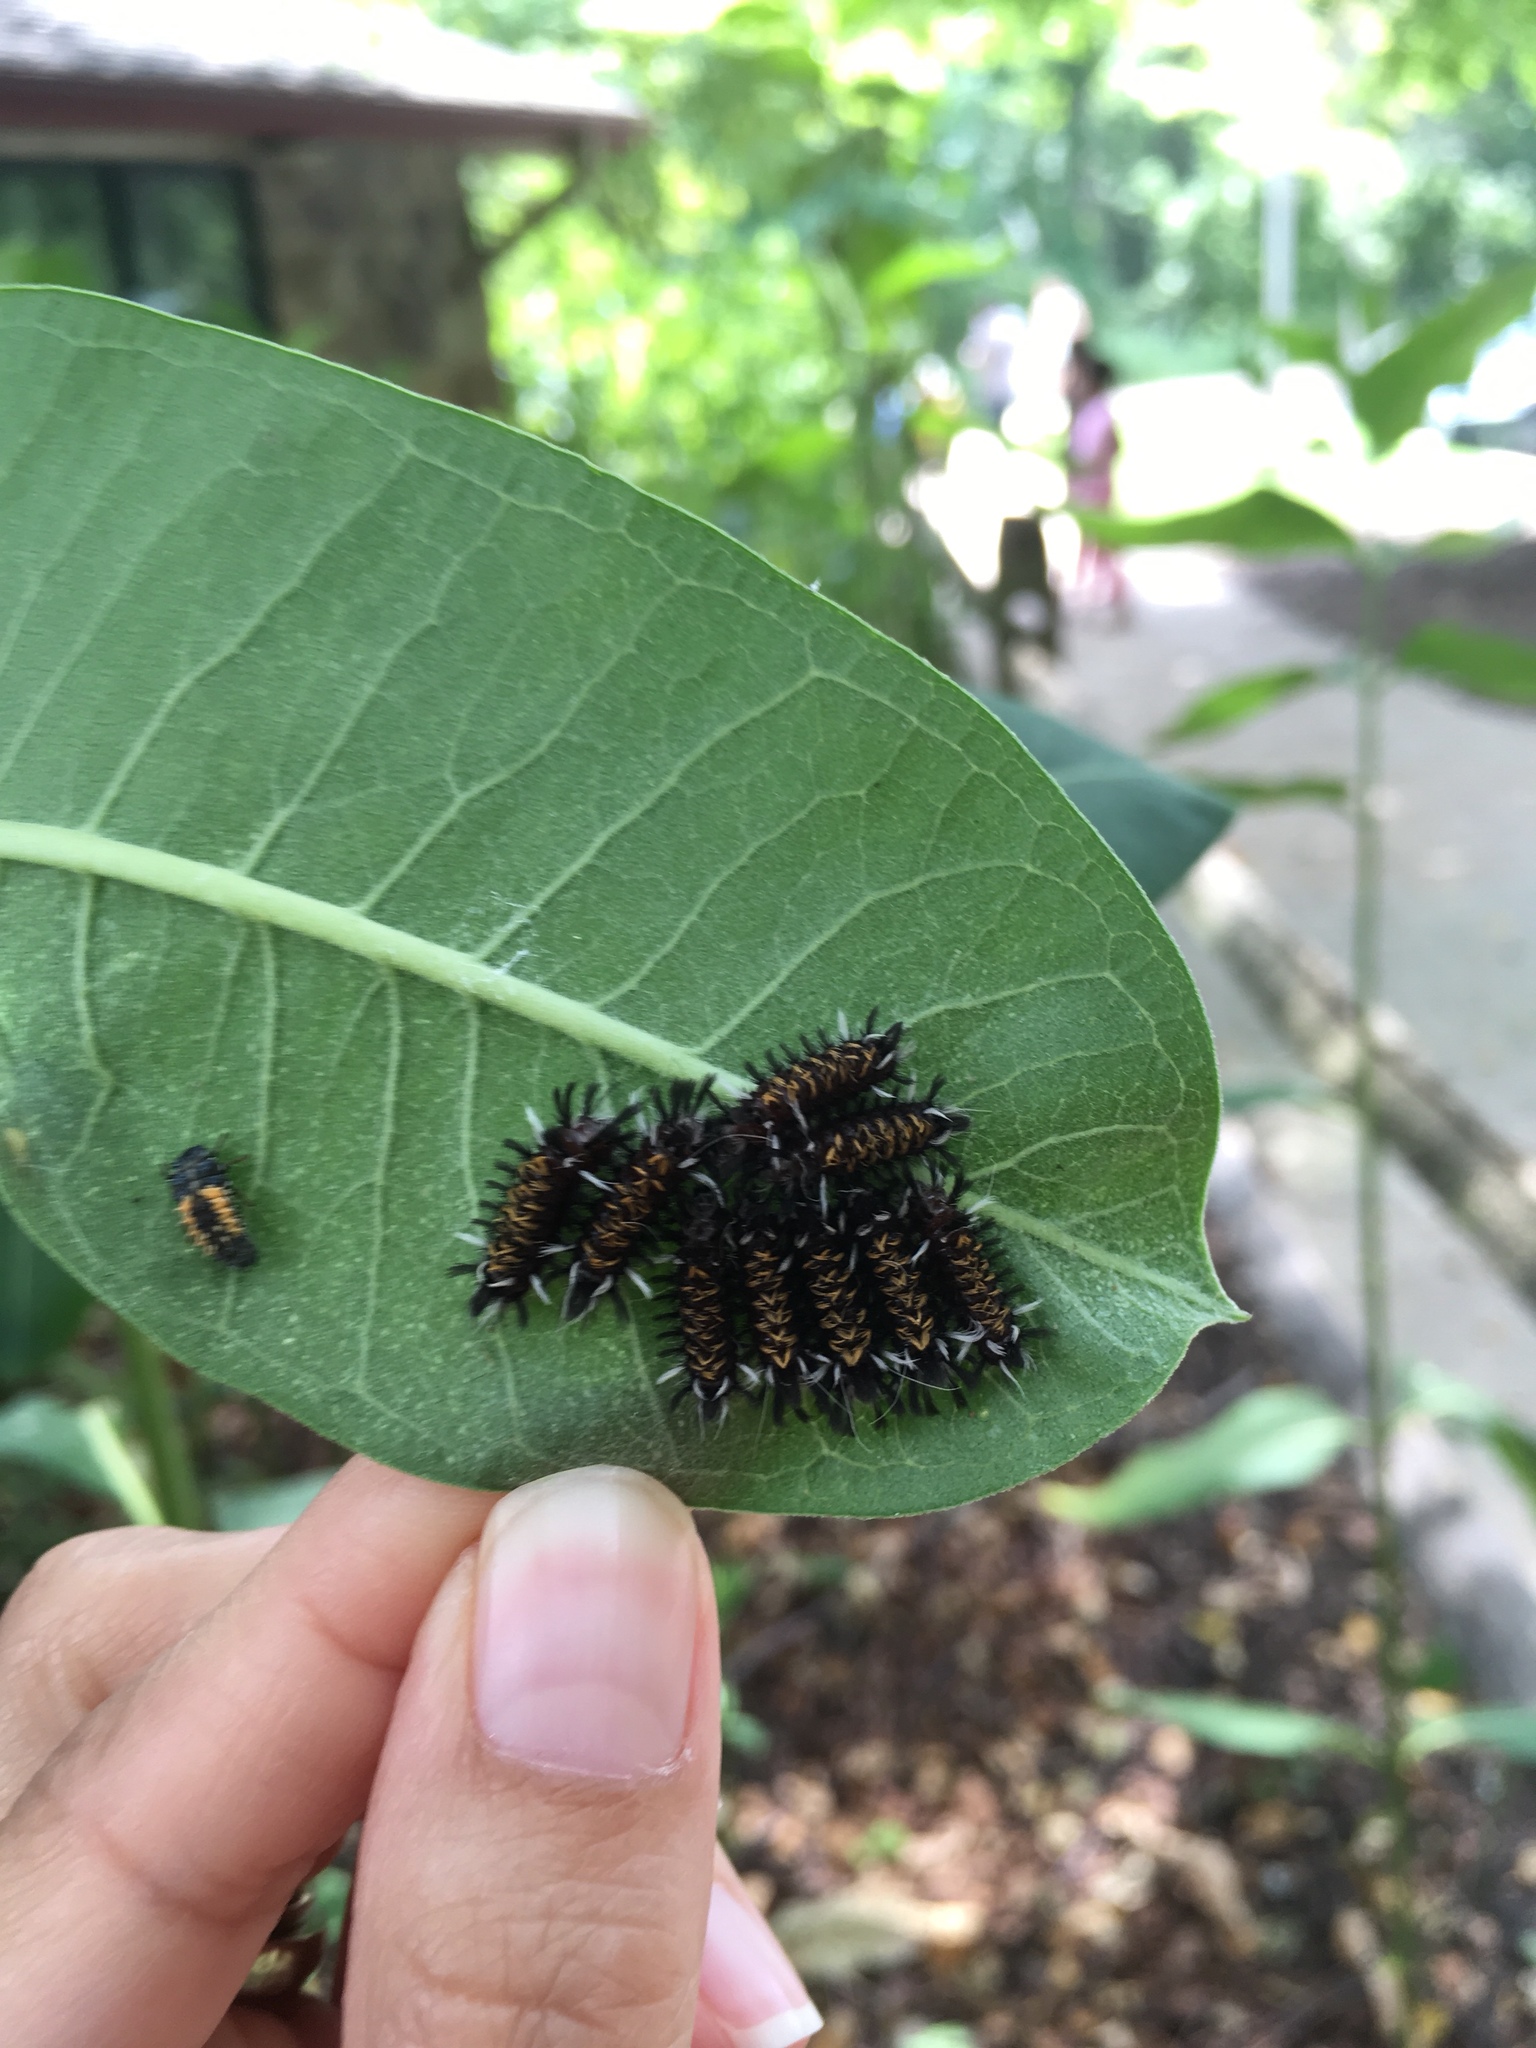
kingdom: Animalia
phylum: Arthropoda
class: Insecta
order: Lepidoptera
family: Erebidae
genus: Euchaetes
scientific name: Euchaetes egle
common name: Milkweed tussock moth
